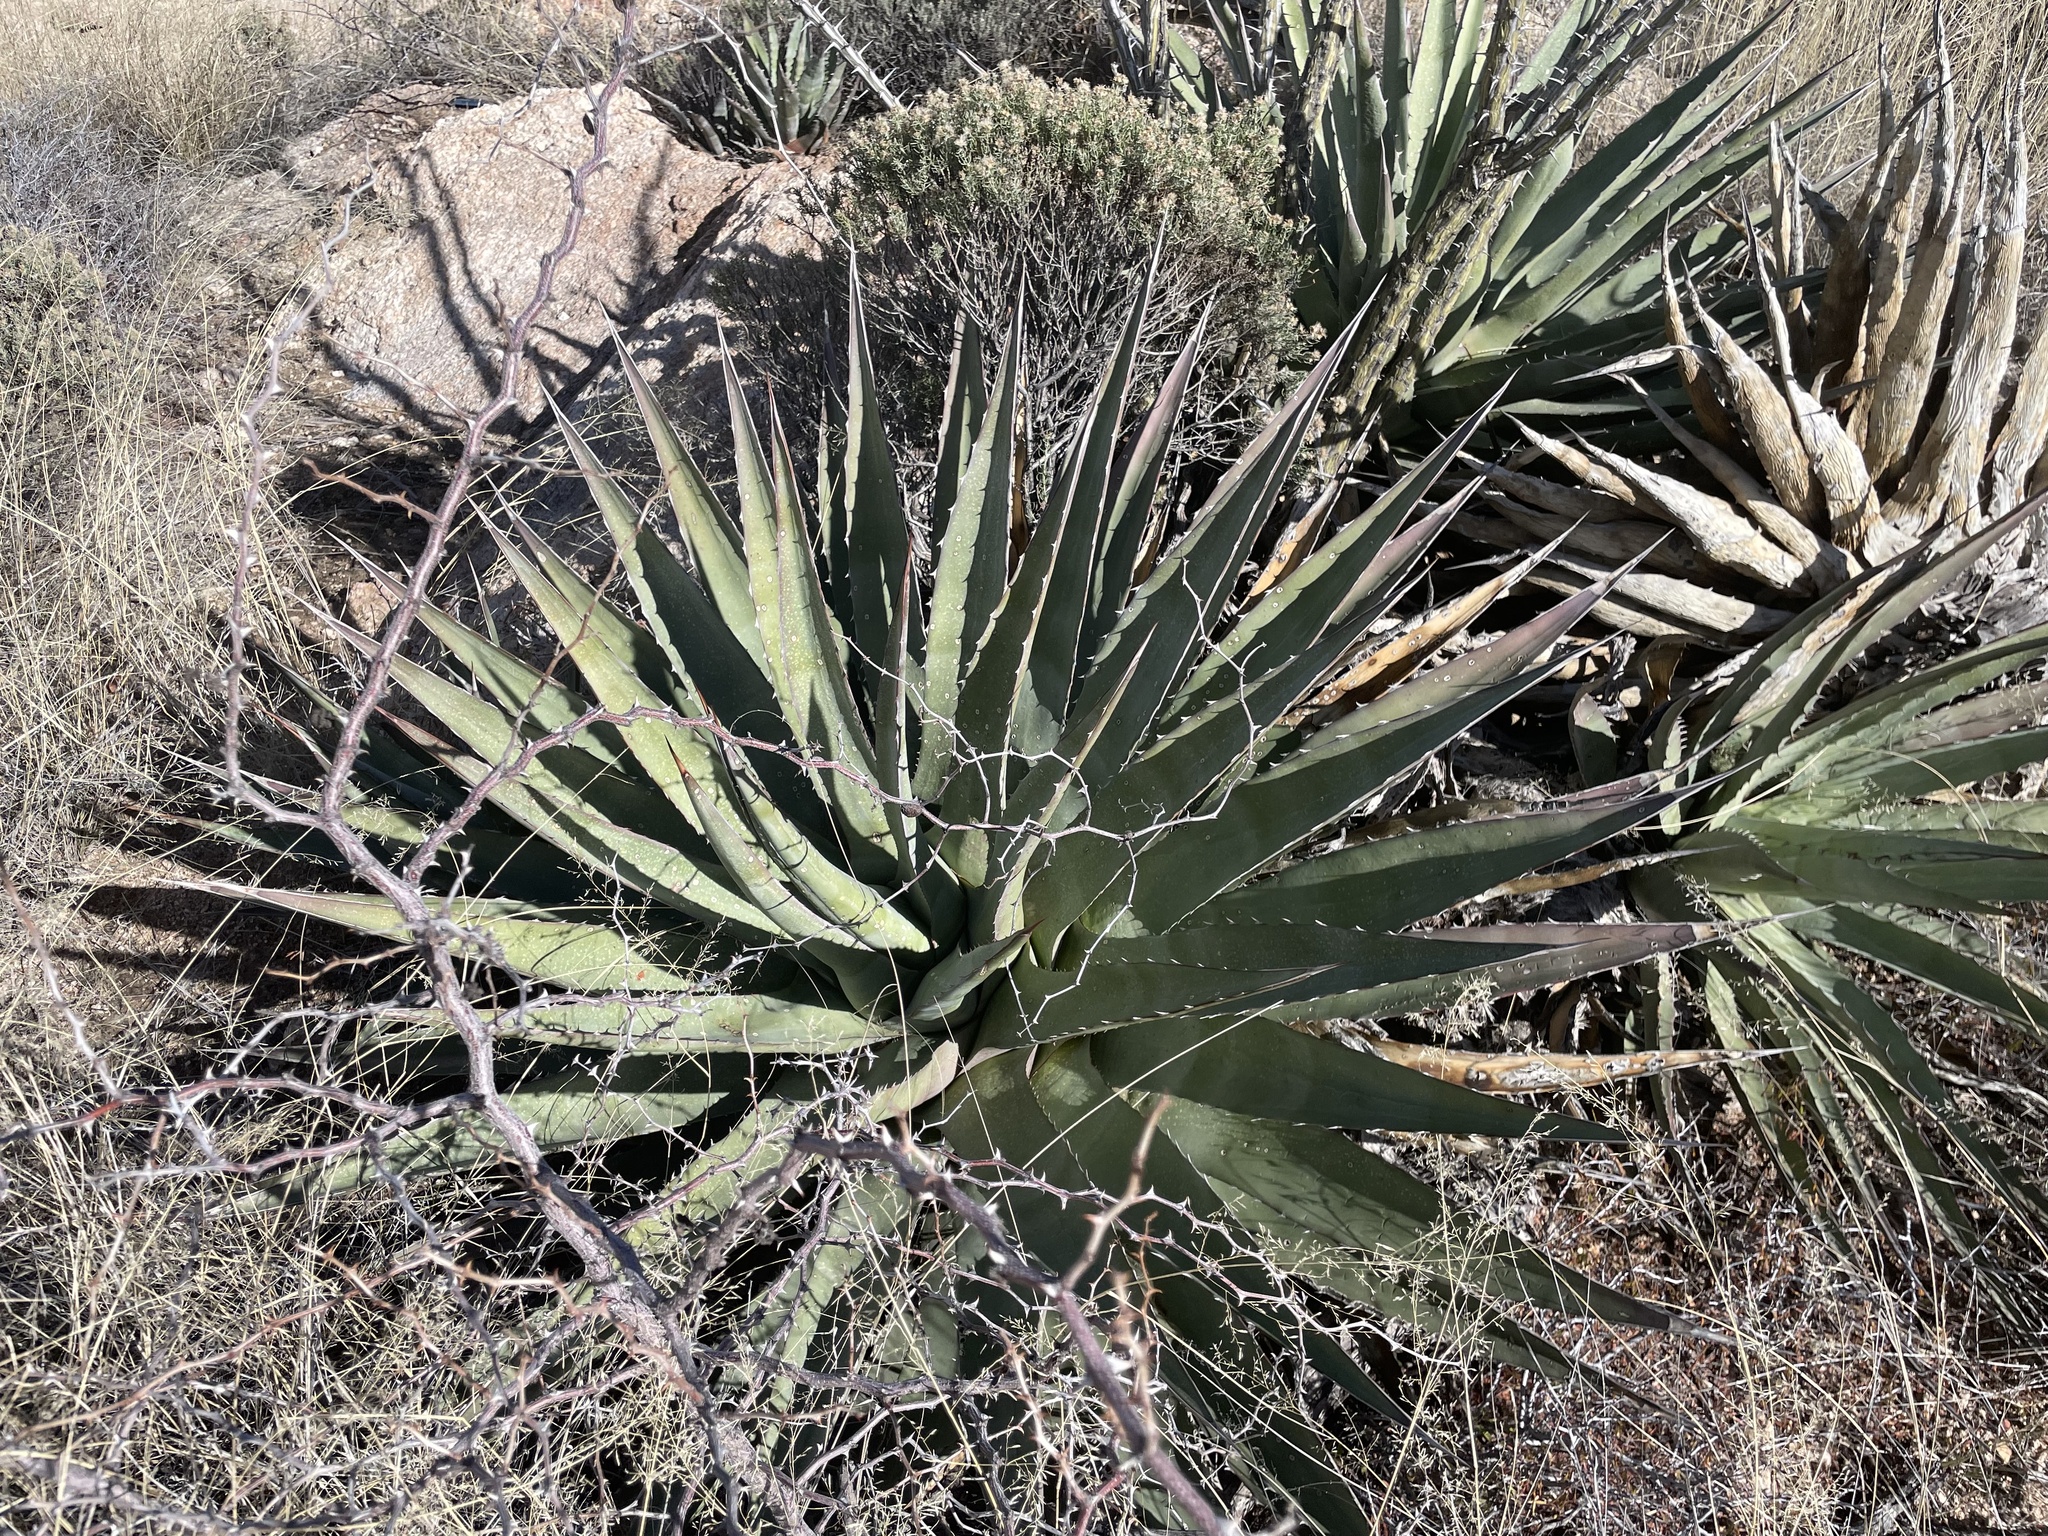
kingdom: Plantae
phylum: Tracheophyta
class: Liliopsida
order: Asparagales
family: Asparagaceae
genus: Agave
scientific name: Agave palmeri
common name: Palmer agave
